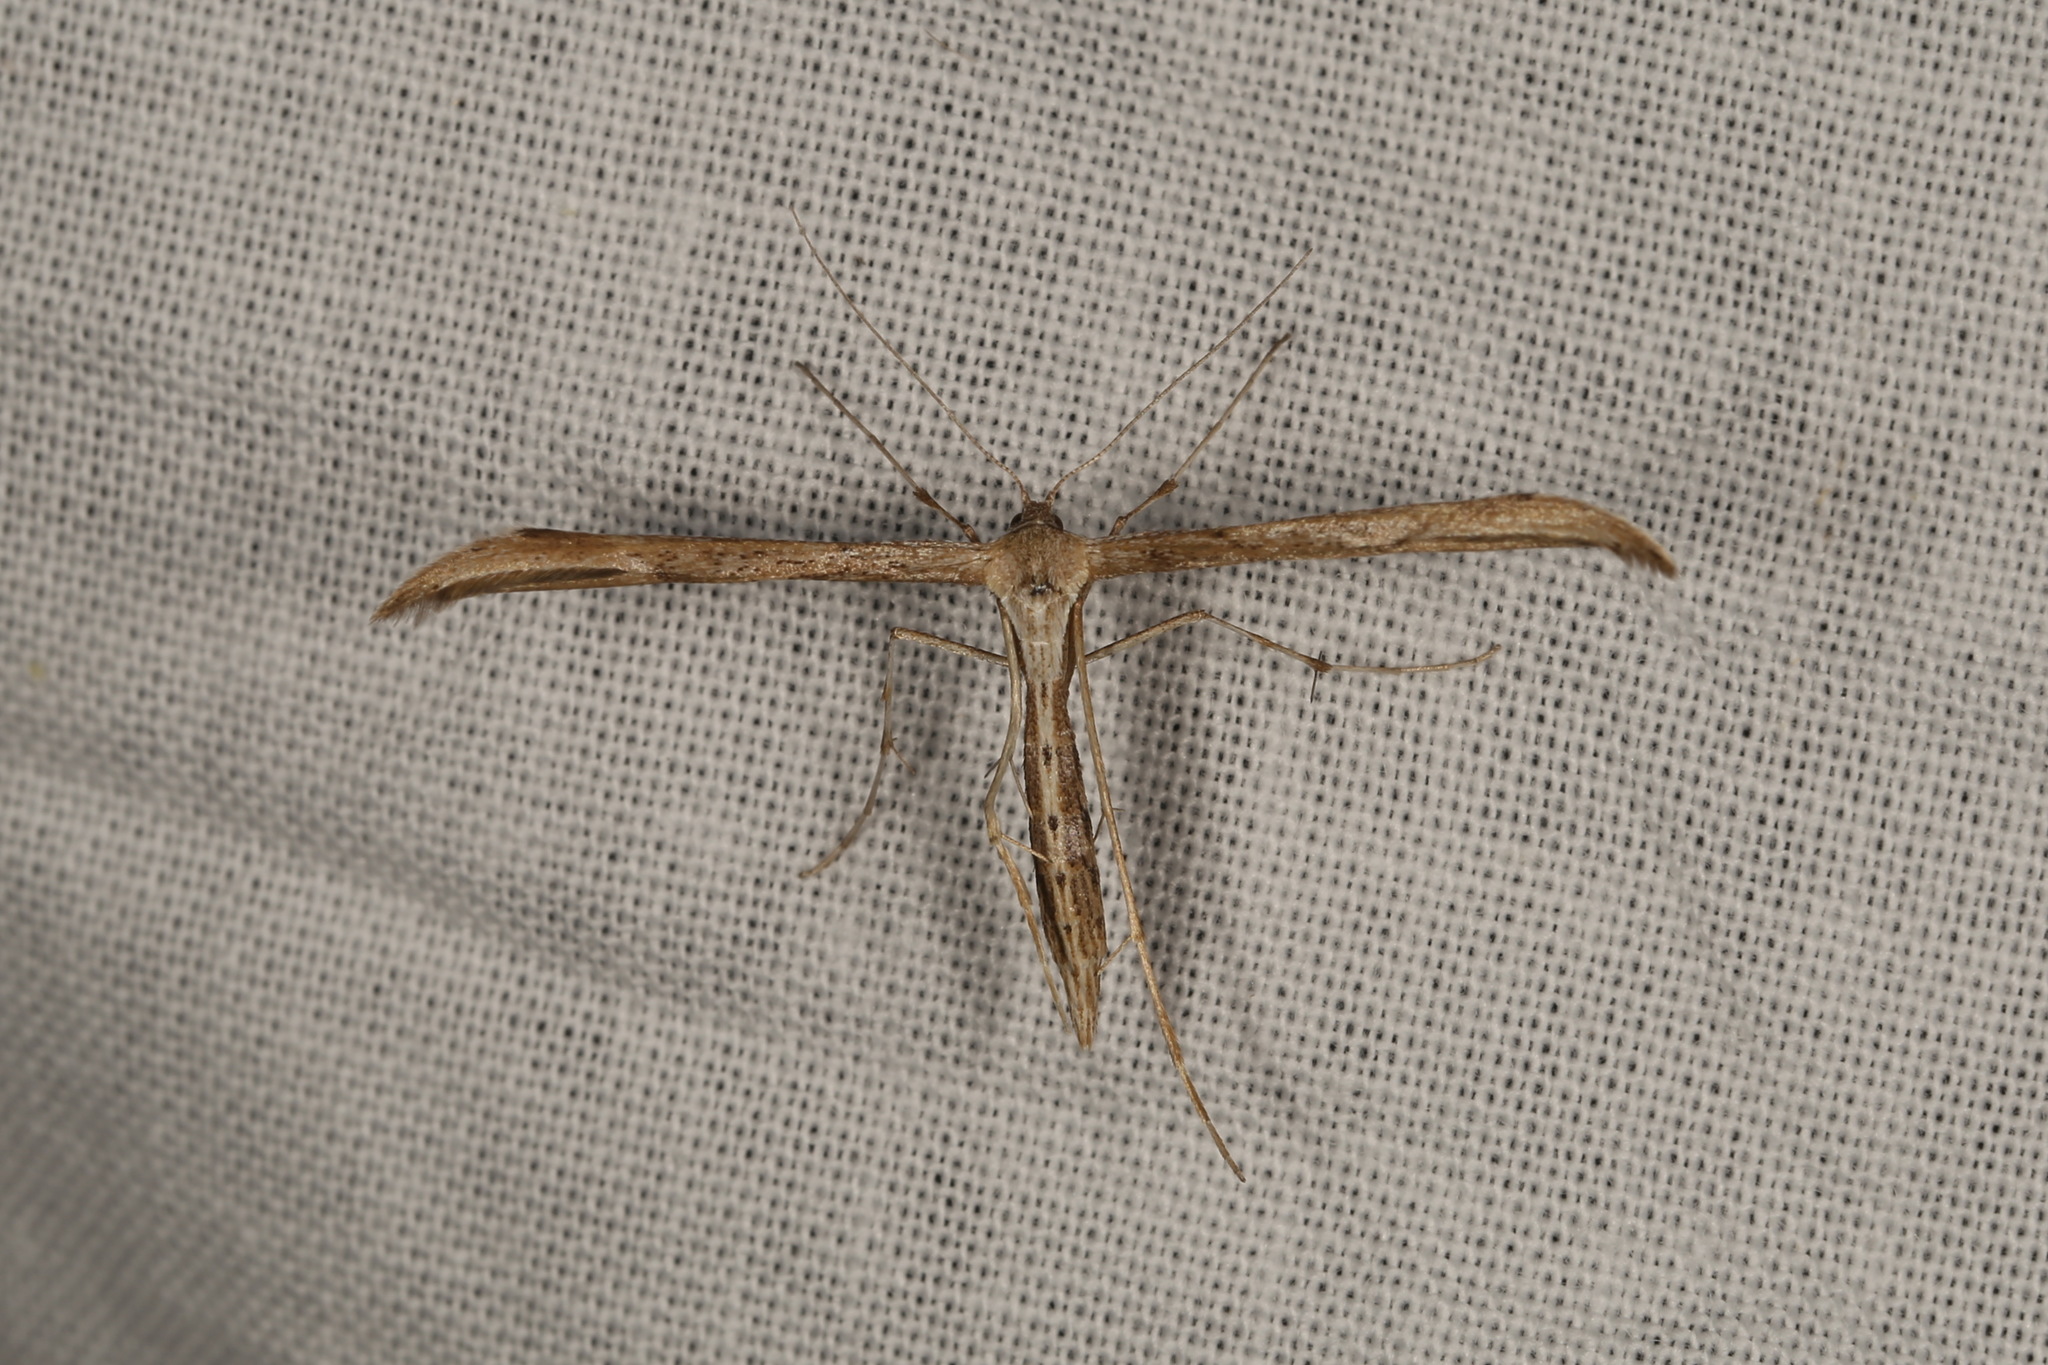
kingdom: Animalia
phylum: Arthropoda
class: Insecta
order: Lepidoptera
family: Pterophoridae
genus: Emmelina
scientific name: Emmelina monodactyla
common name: Common plume
